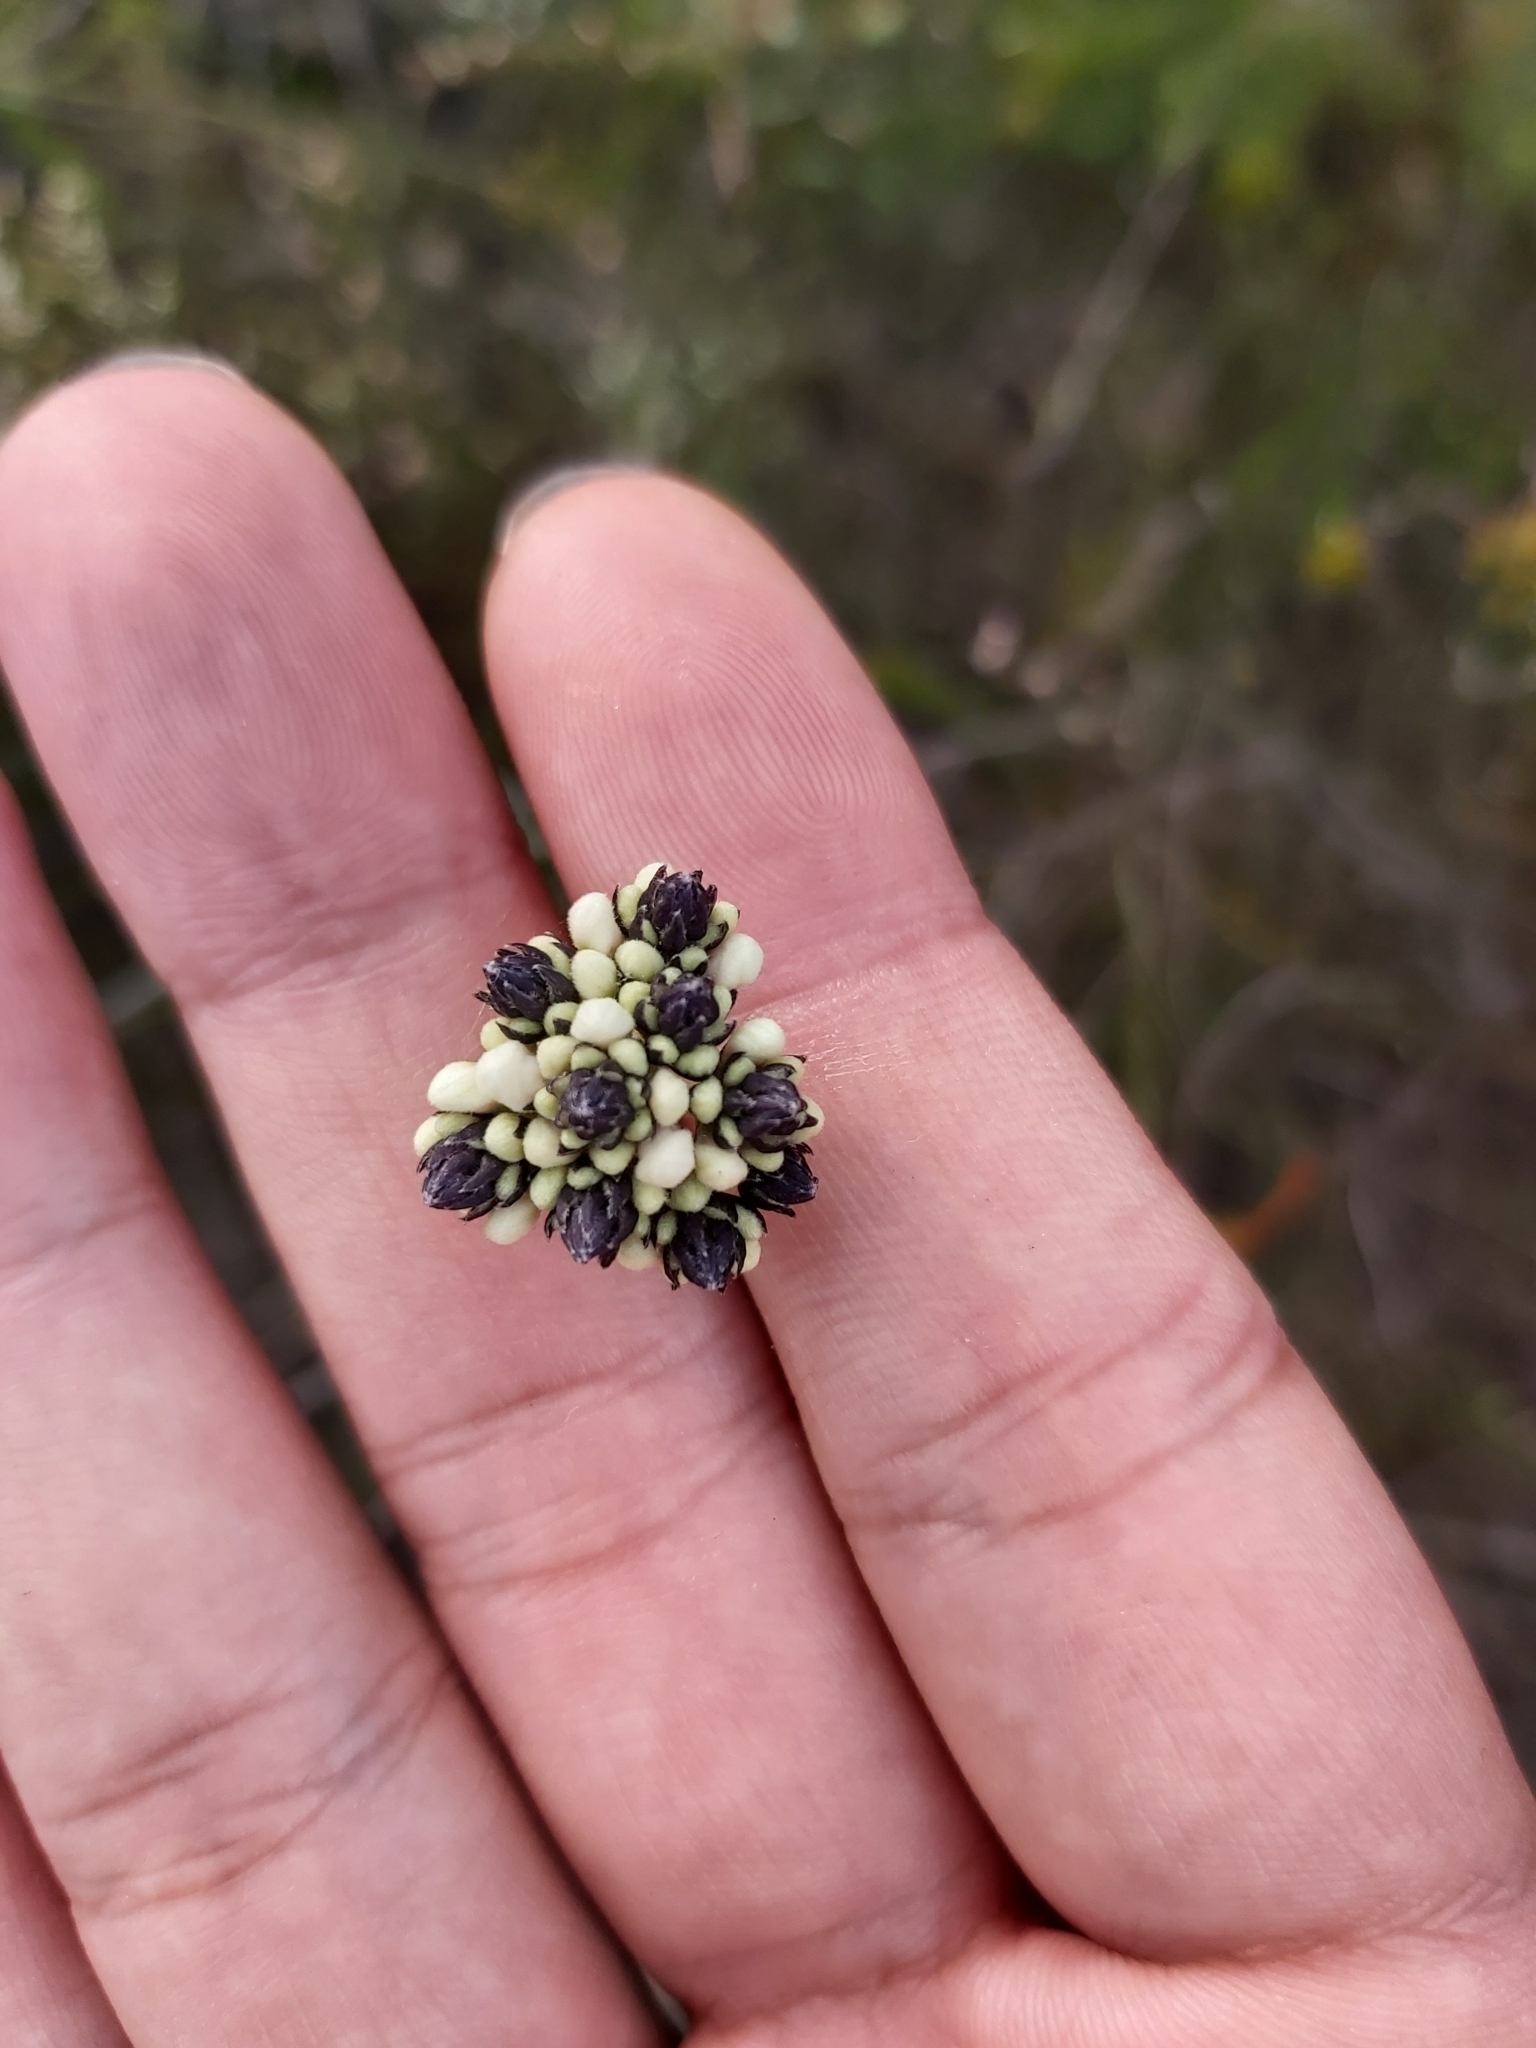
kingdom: Plantae
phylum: Tracheophyta
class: Magnoliopsida
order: Proteales
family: Proteaceae
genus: Conospermum
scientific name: Conospermum longifolium
